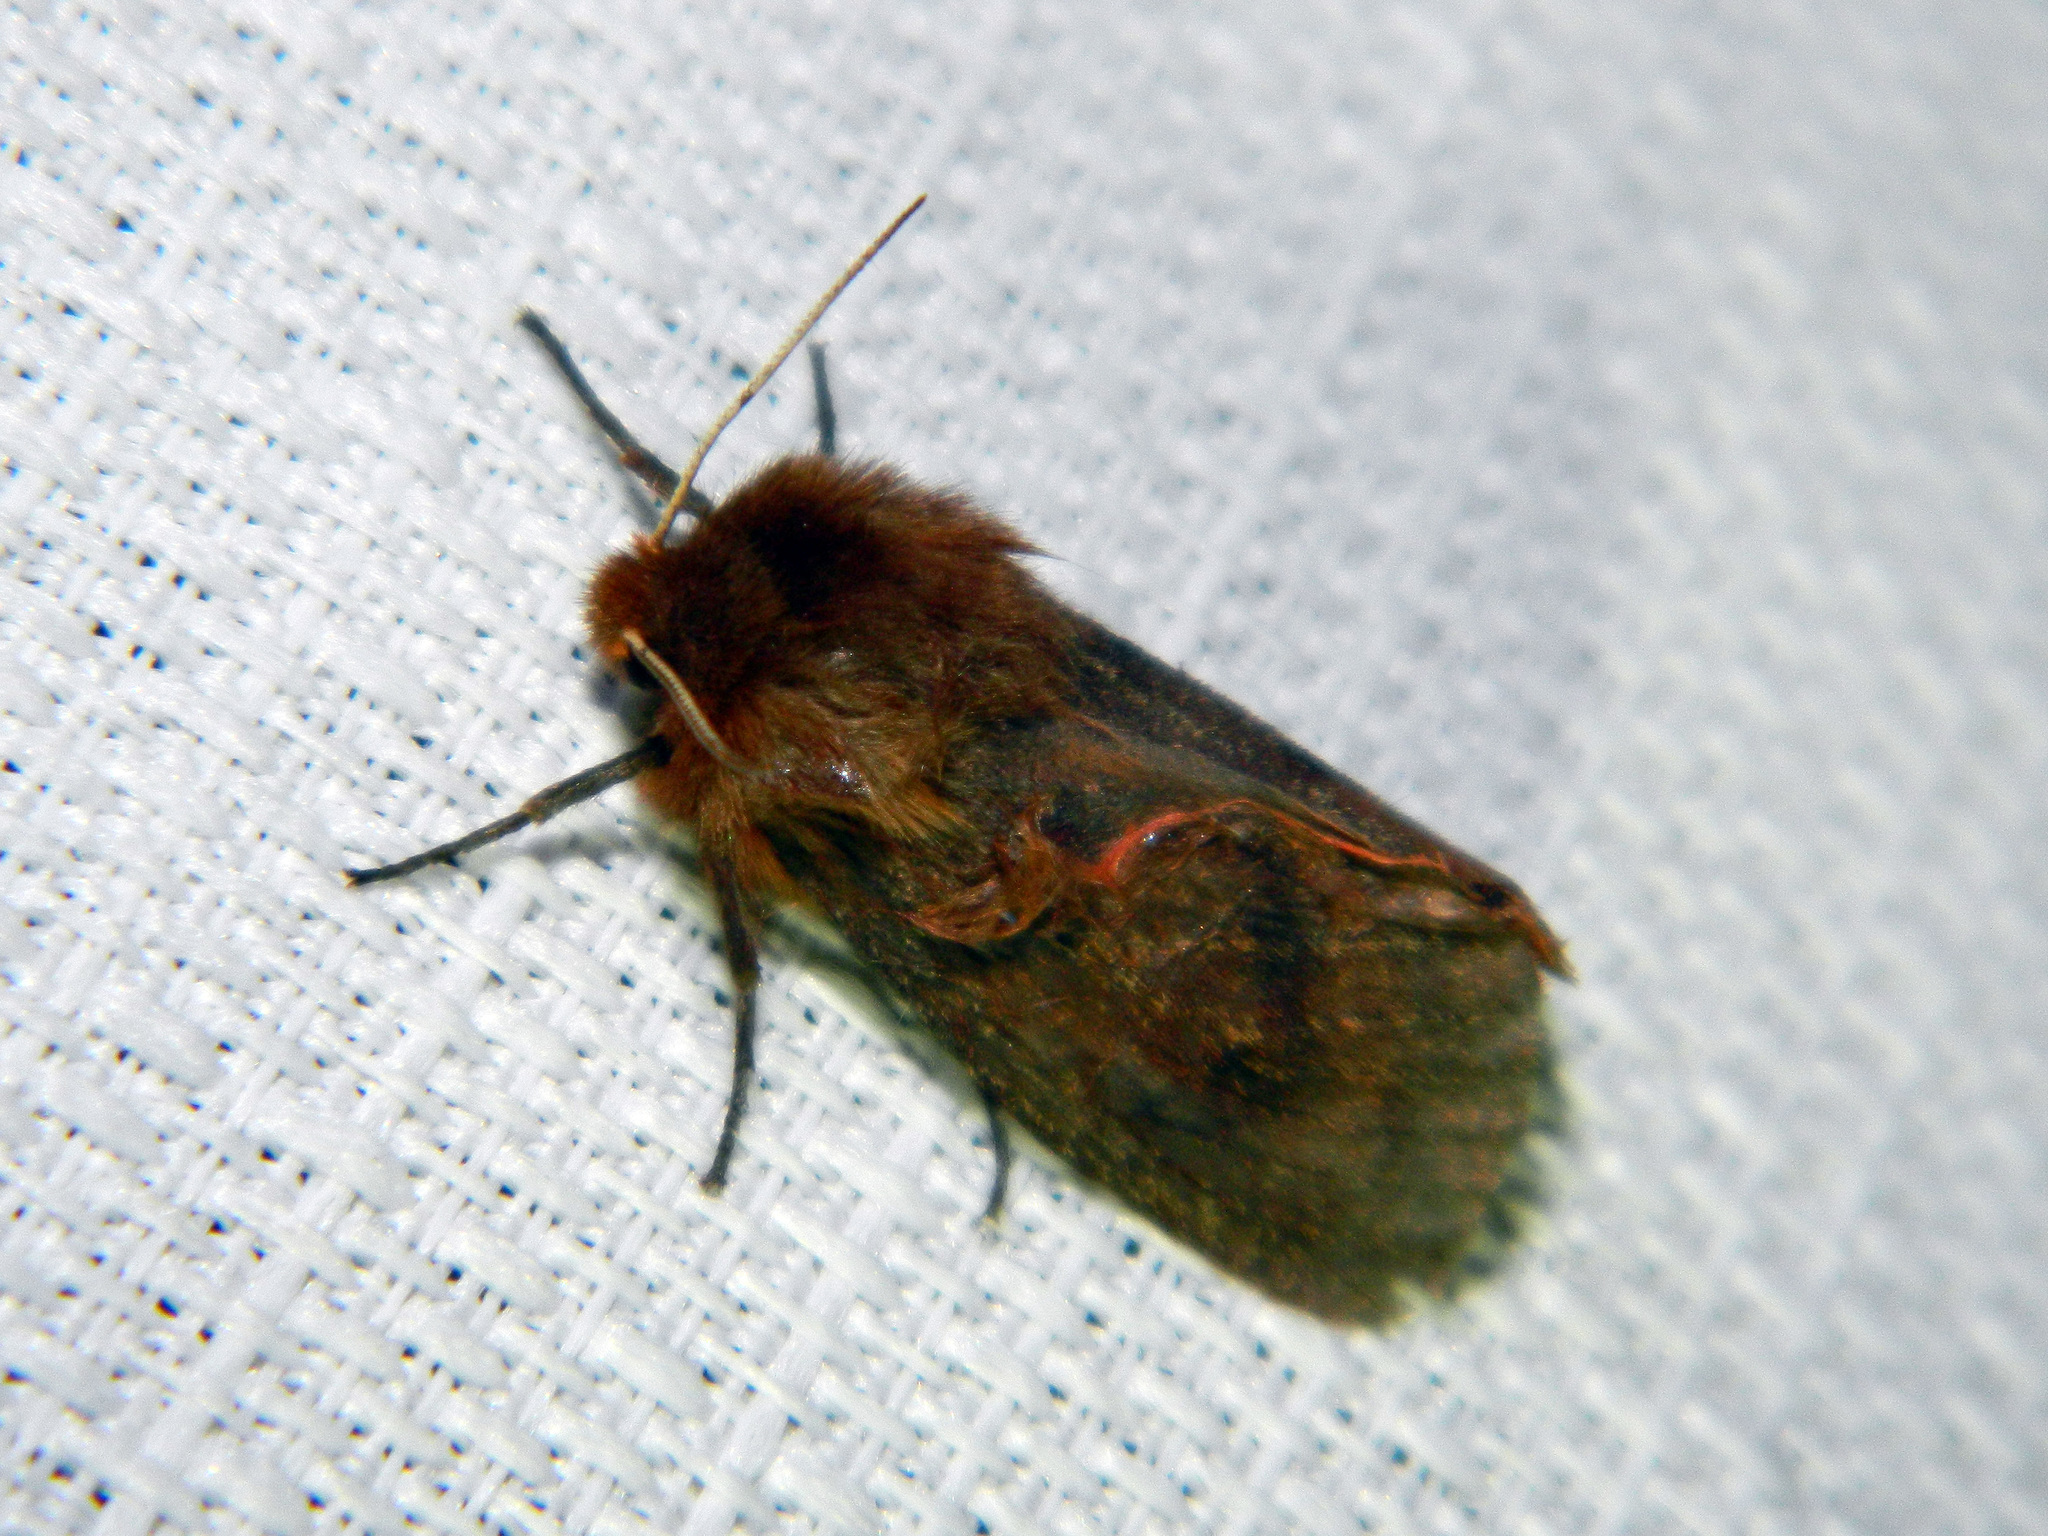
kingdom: Animalia
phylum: Arthropoda
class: Insecta
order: Lepidoptera
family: Erebidae
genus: Phragmatobia
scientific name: Phragmatobia assimilans
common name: Large ruby tiger moth
